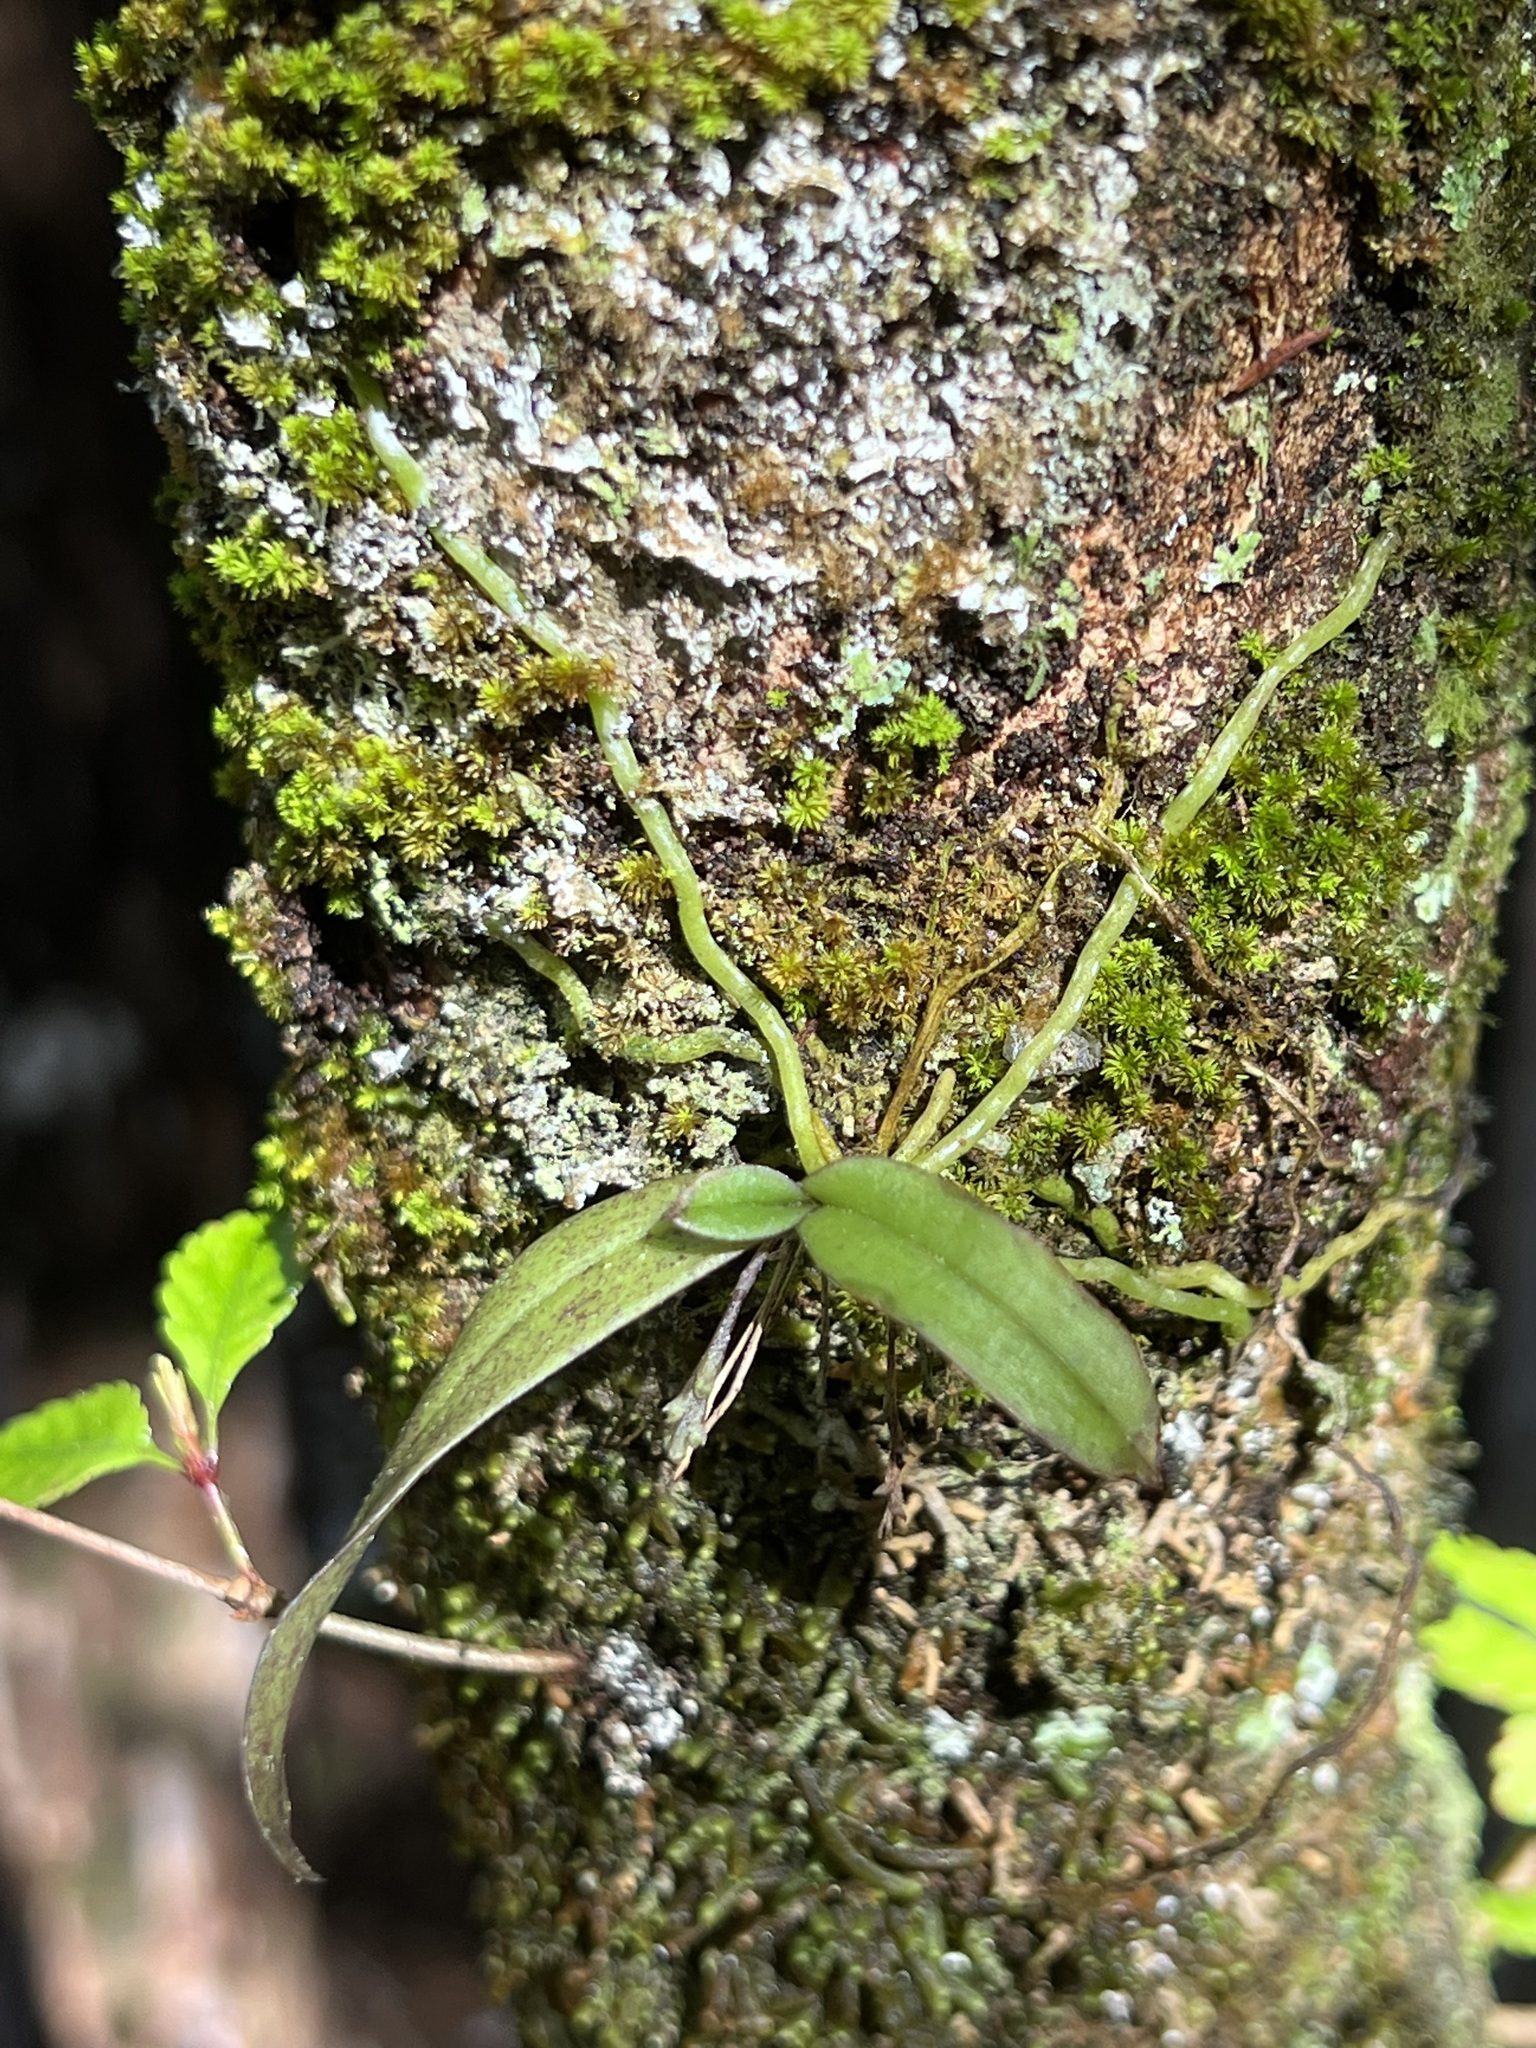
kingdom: Plantae
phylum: Tracheophyta
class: Liliopsida
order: Asparagales
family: Orchidaceae
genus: Drymoanthus
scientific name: Drymoanthus adversus
